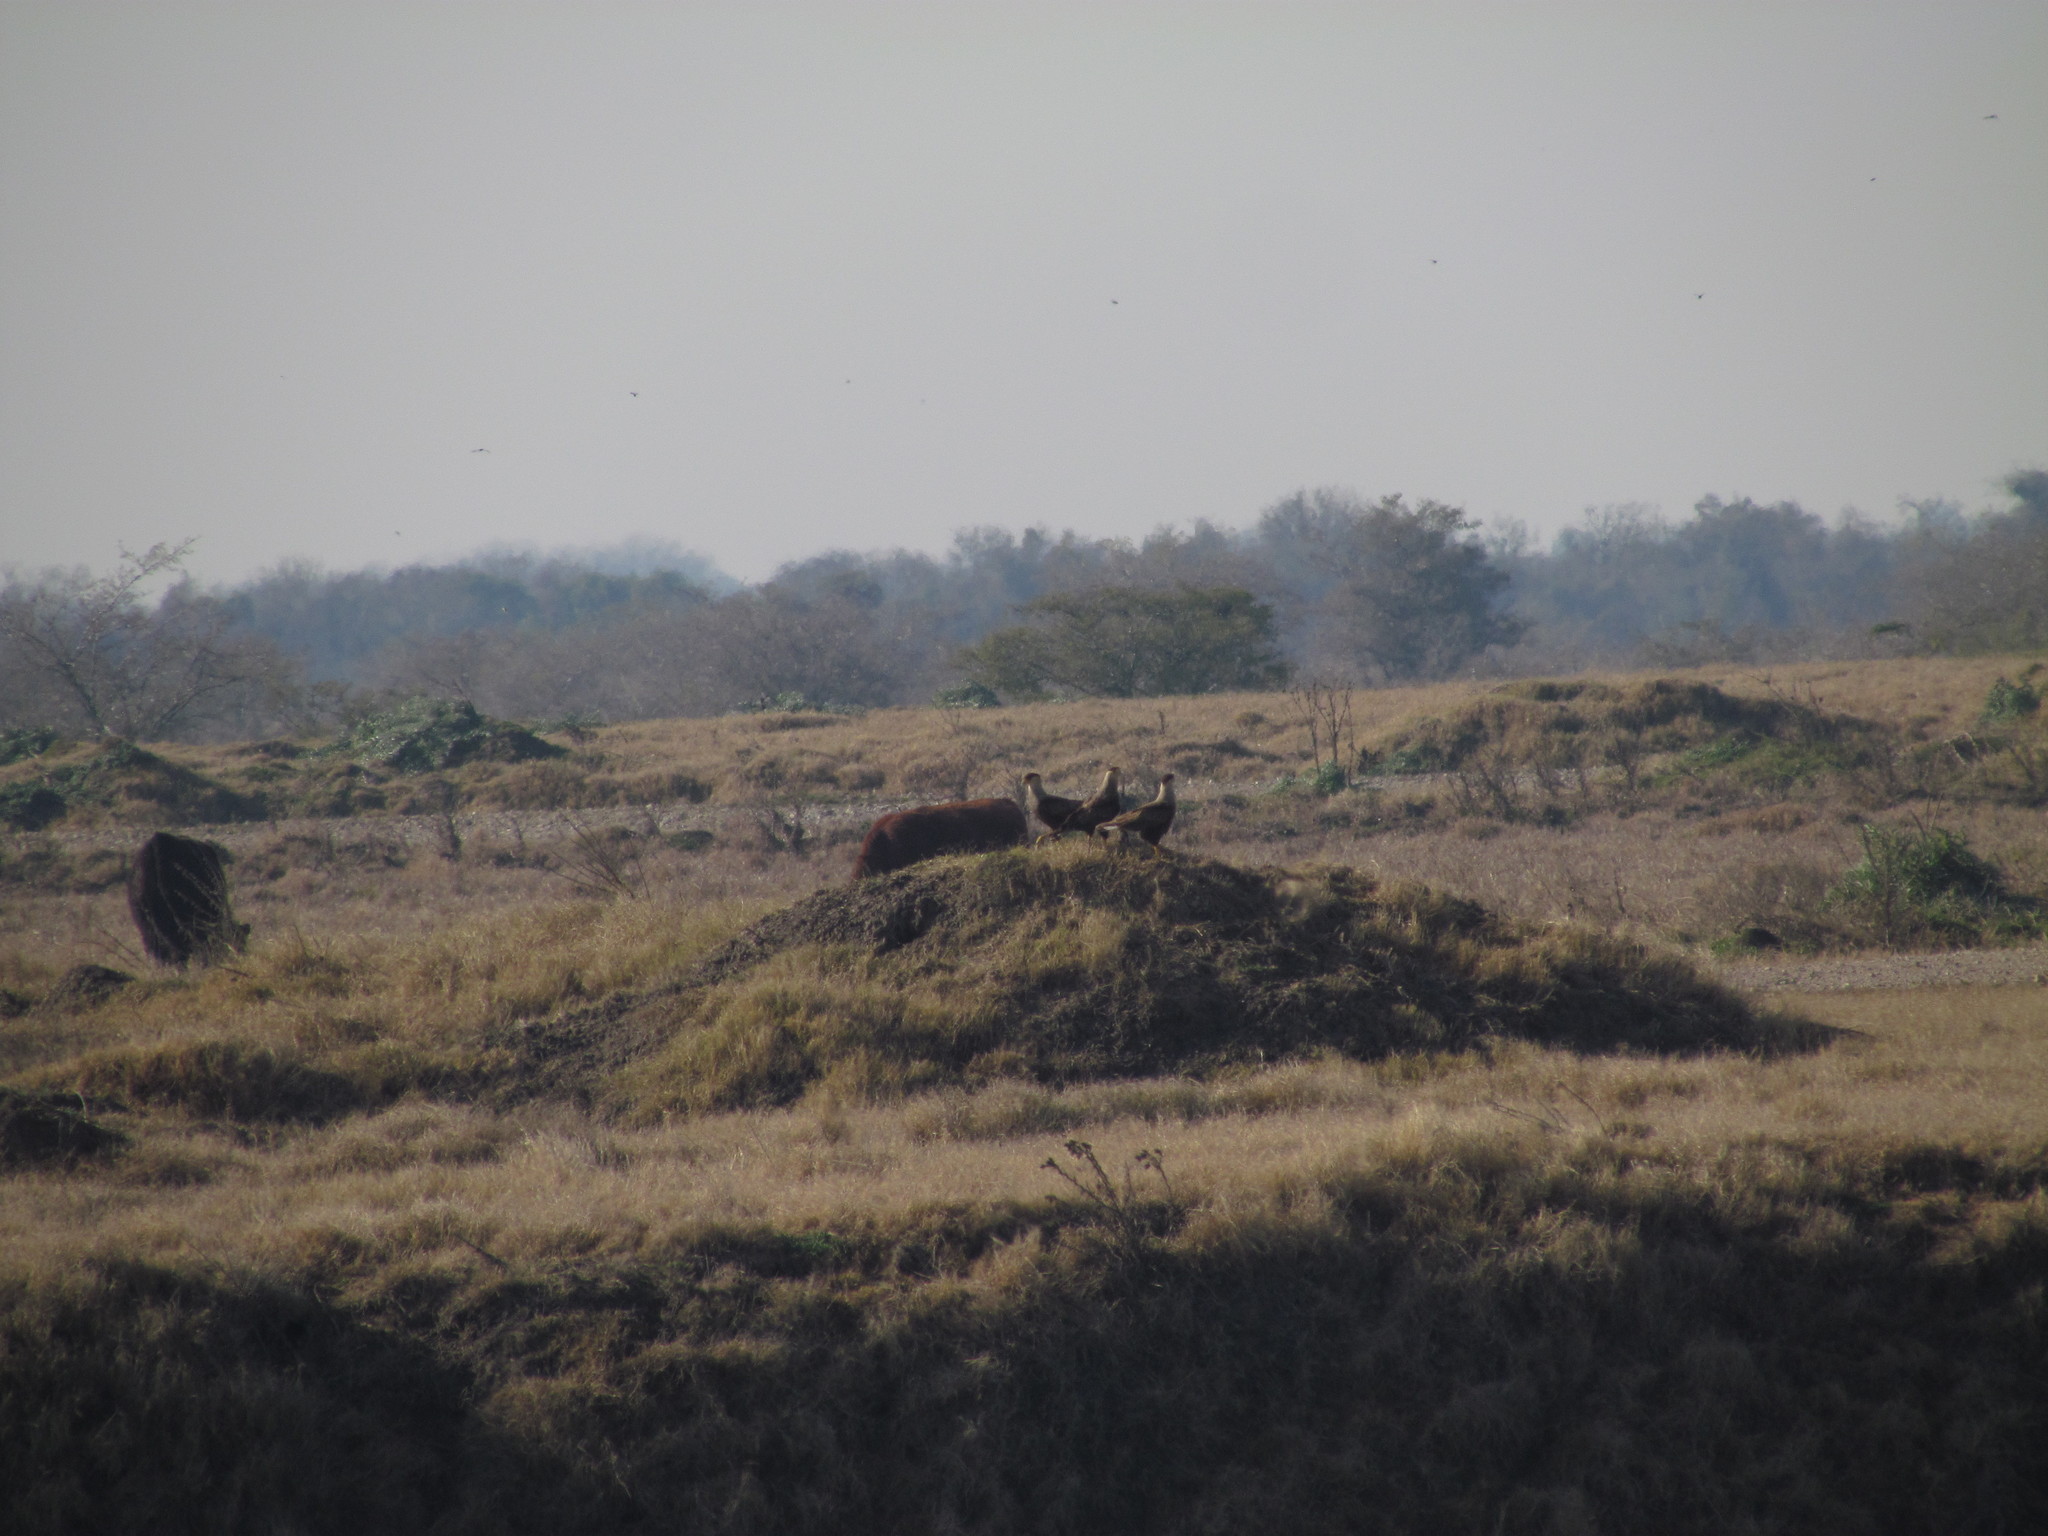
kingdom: Animalia
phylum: Chordata
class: Aves
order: Falconiformes
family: Falconidae
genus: Caracara
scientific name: Caracara plancus
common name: Southern caracara
